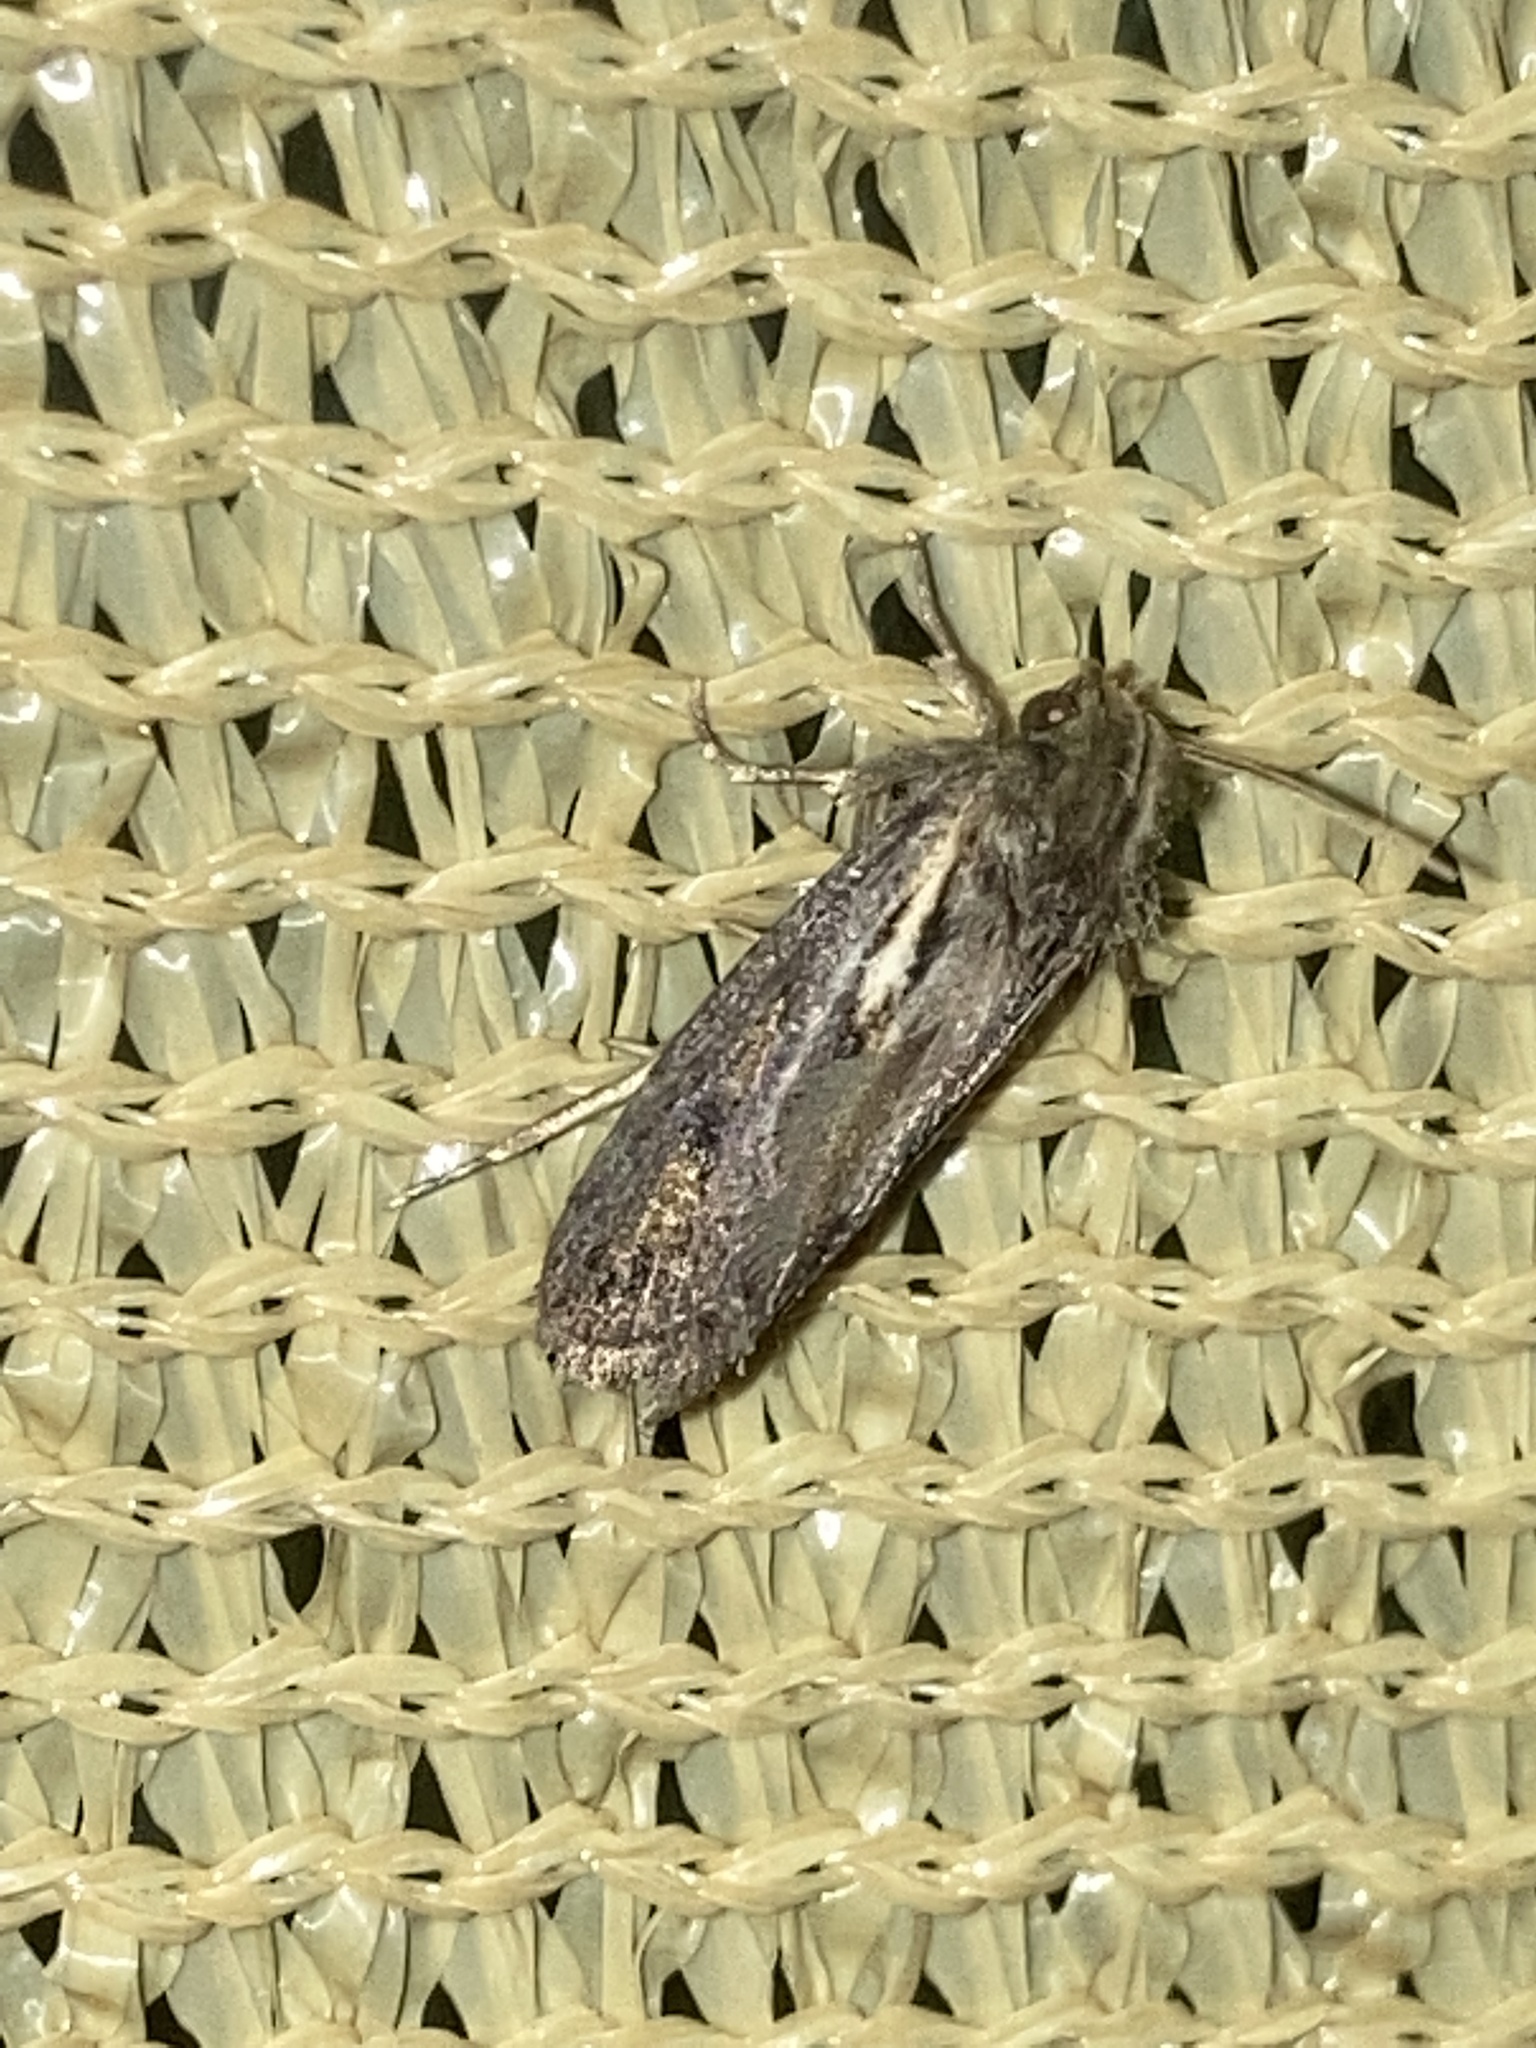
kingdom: Animalia
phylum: Arthropoda
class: Insecta
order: Lepidoptera
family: Tineidae
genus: Acrolophus
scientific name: Acrolophus popeanella
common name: Clemens' grass tubeworm moth
